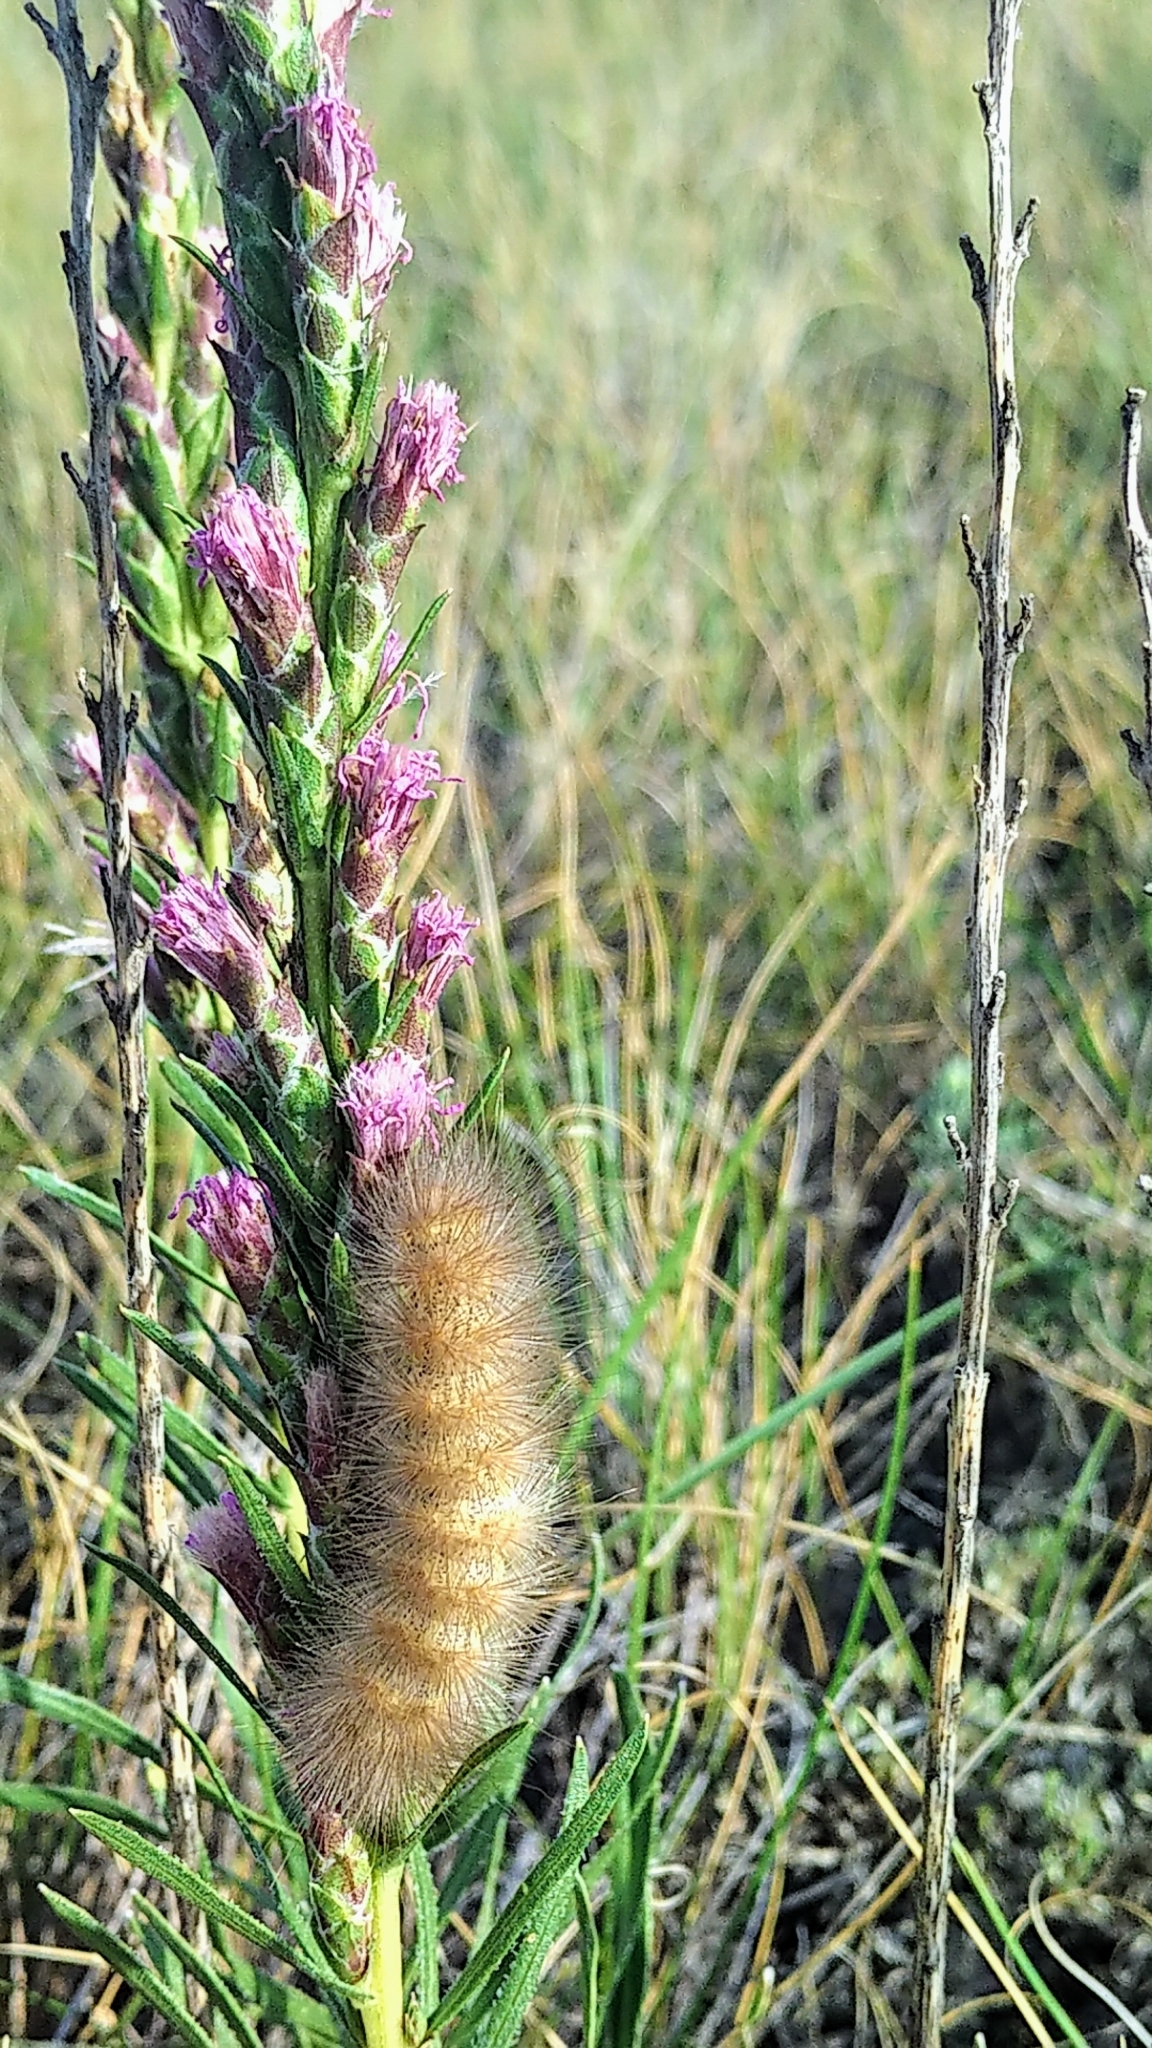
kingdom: Animalia
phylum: Arthropoda
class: Insecta
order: Lepidoptera
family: Erebidae
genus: Estigmene
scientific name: Estigmene acrea
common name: Salt marsh moth
